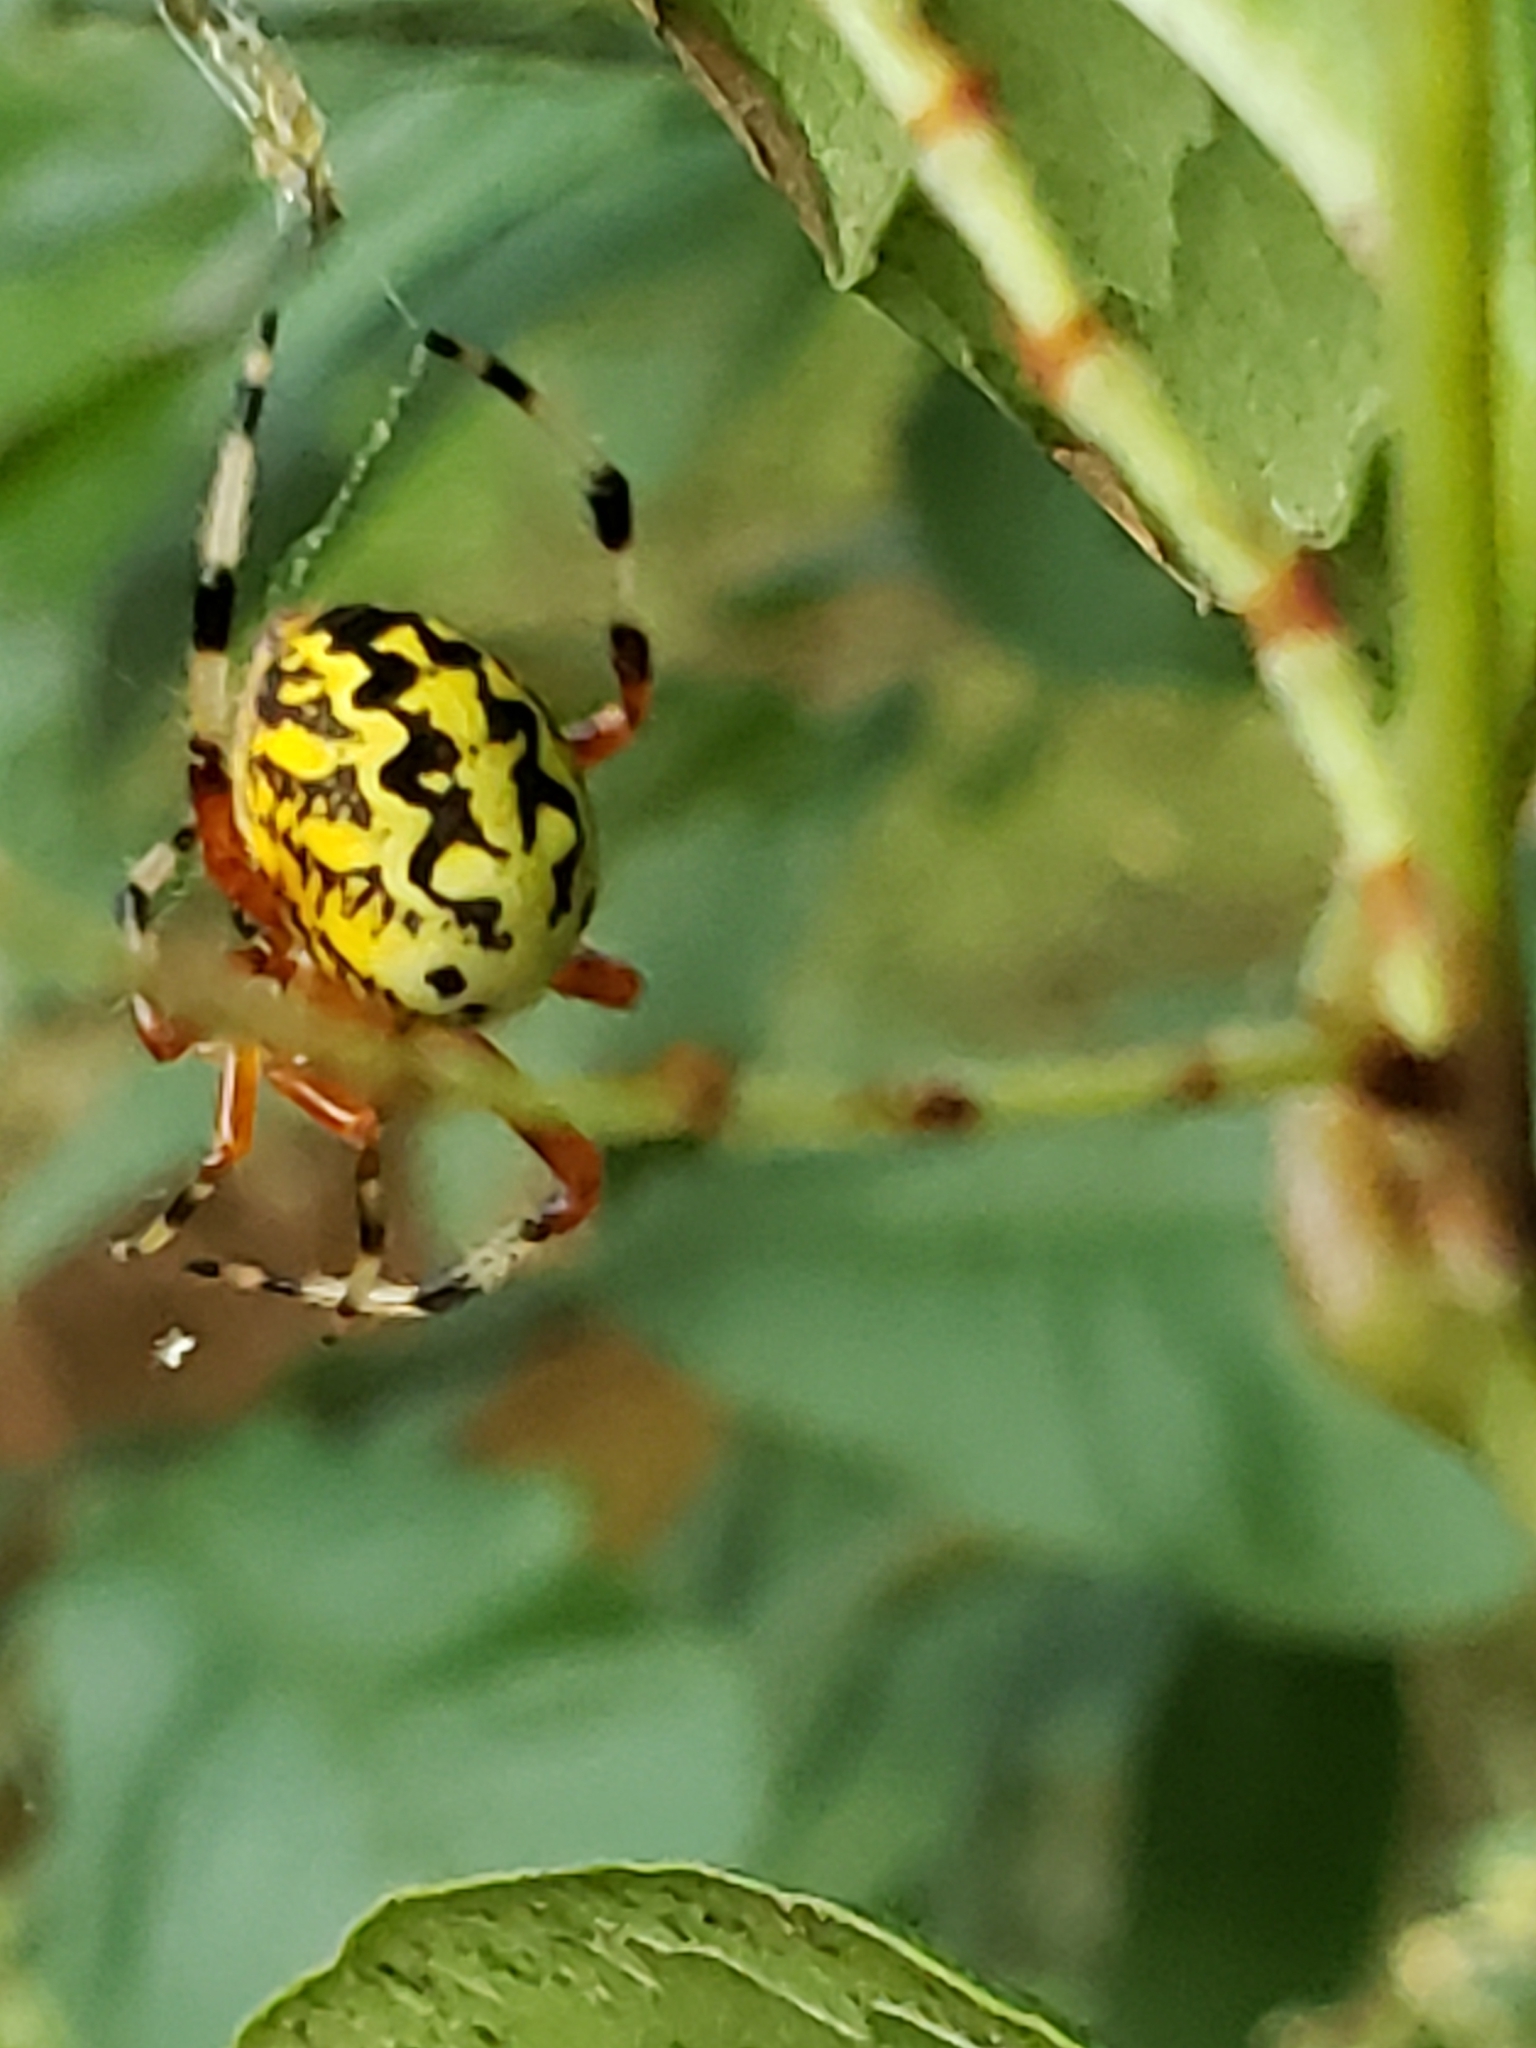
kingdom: Animalia
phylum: Arthropoda
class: Arachnida
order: Araneae
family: Araneidae
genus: Araneus
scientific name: Araneus marmoreus
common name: Marbled orbweaver
